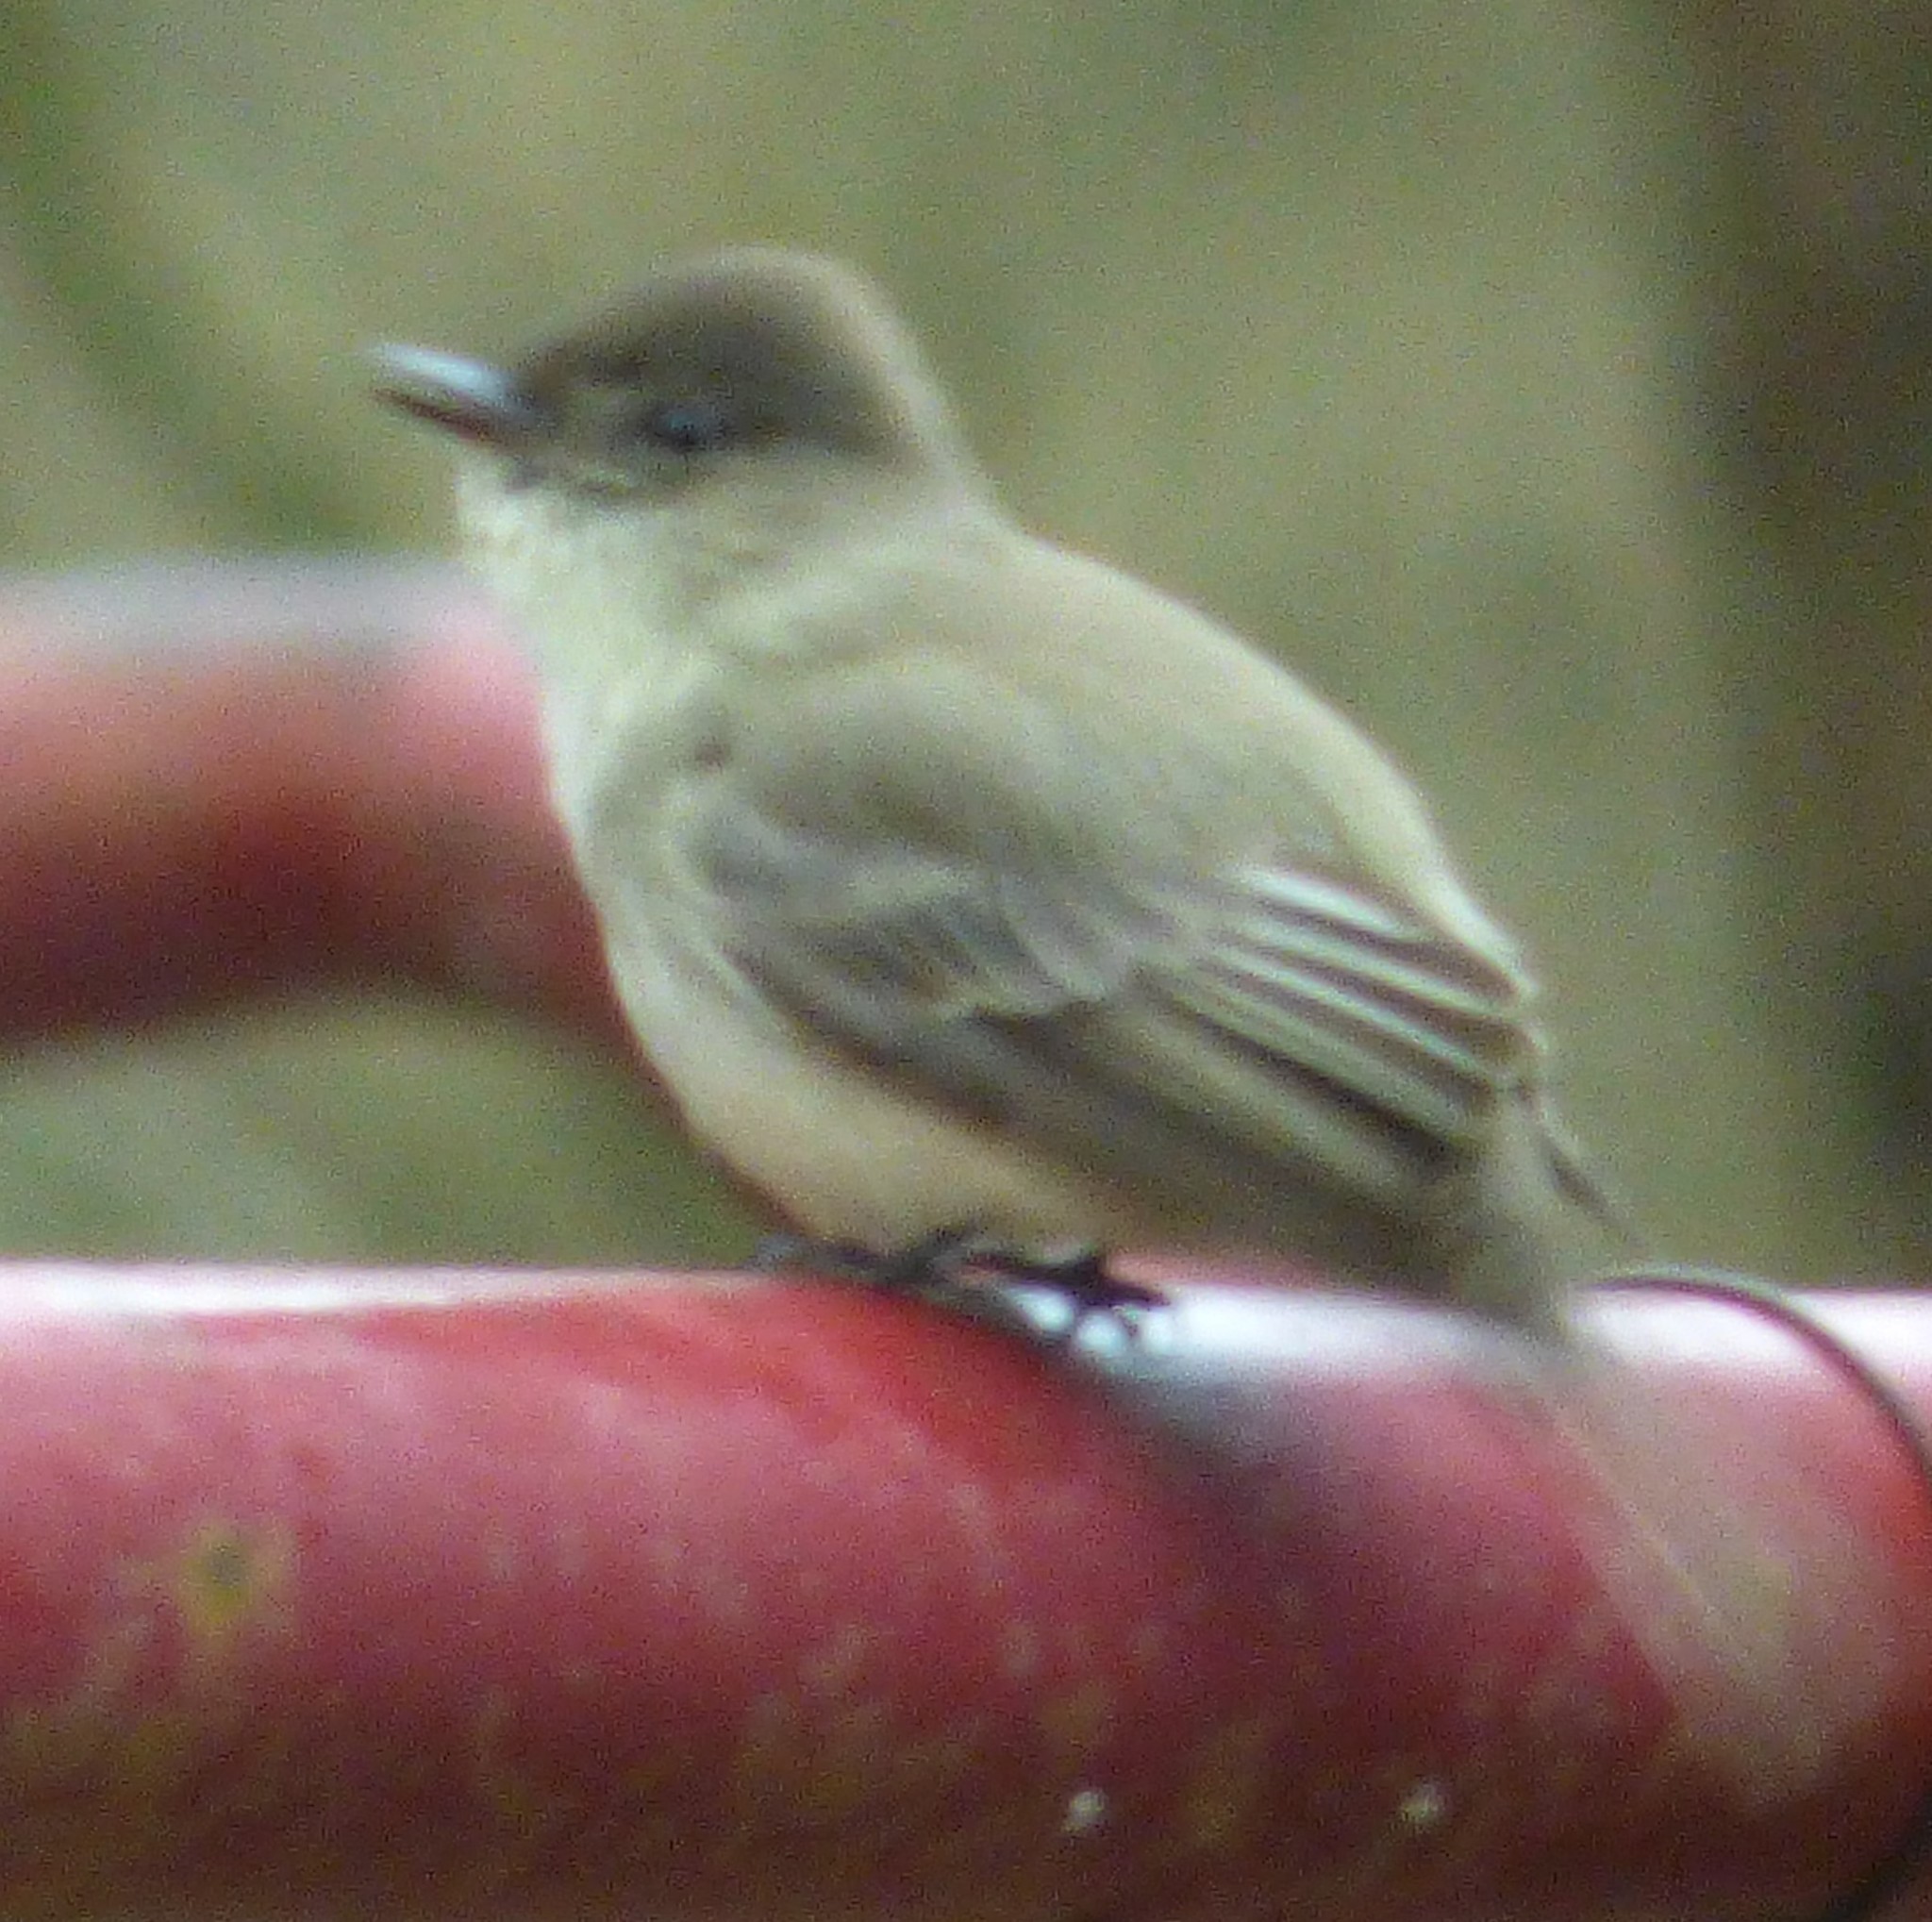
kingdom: Animalia
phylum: Chordata
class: Aves
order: Passeriformes
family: Tyrannidae
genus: Sayornis
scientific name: Sayornis phoebe
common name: Eastern phoebe
